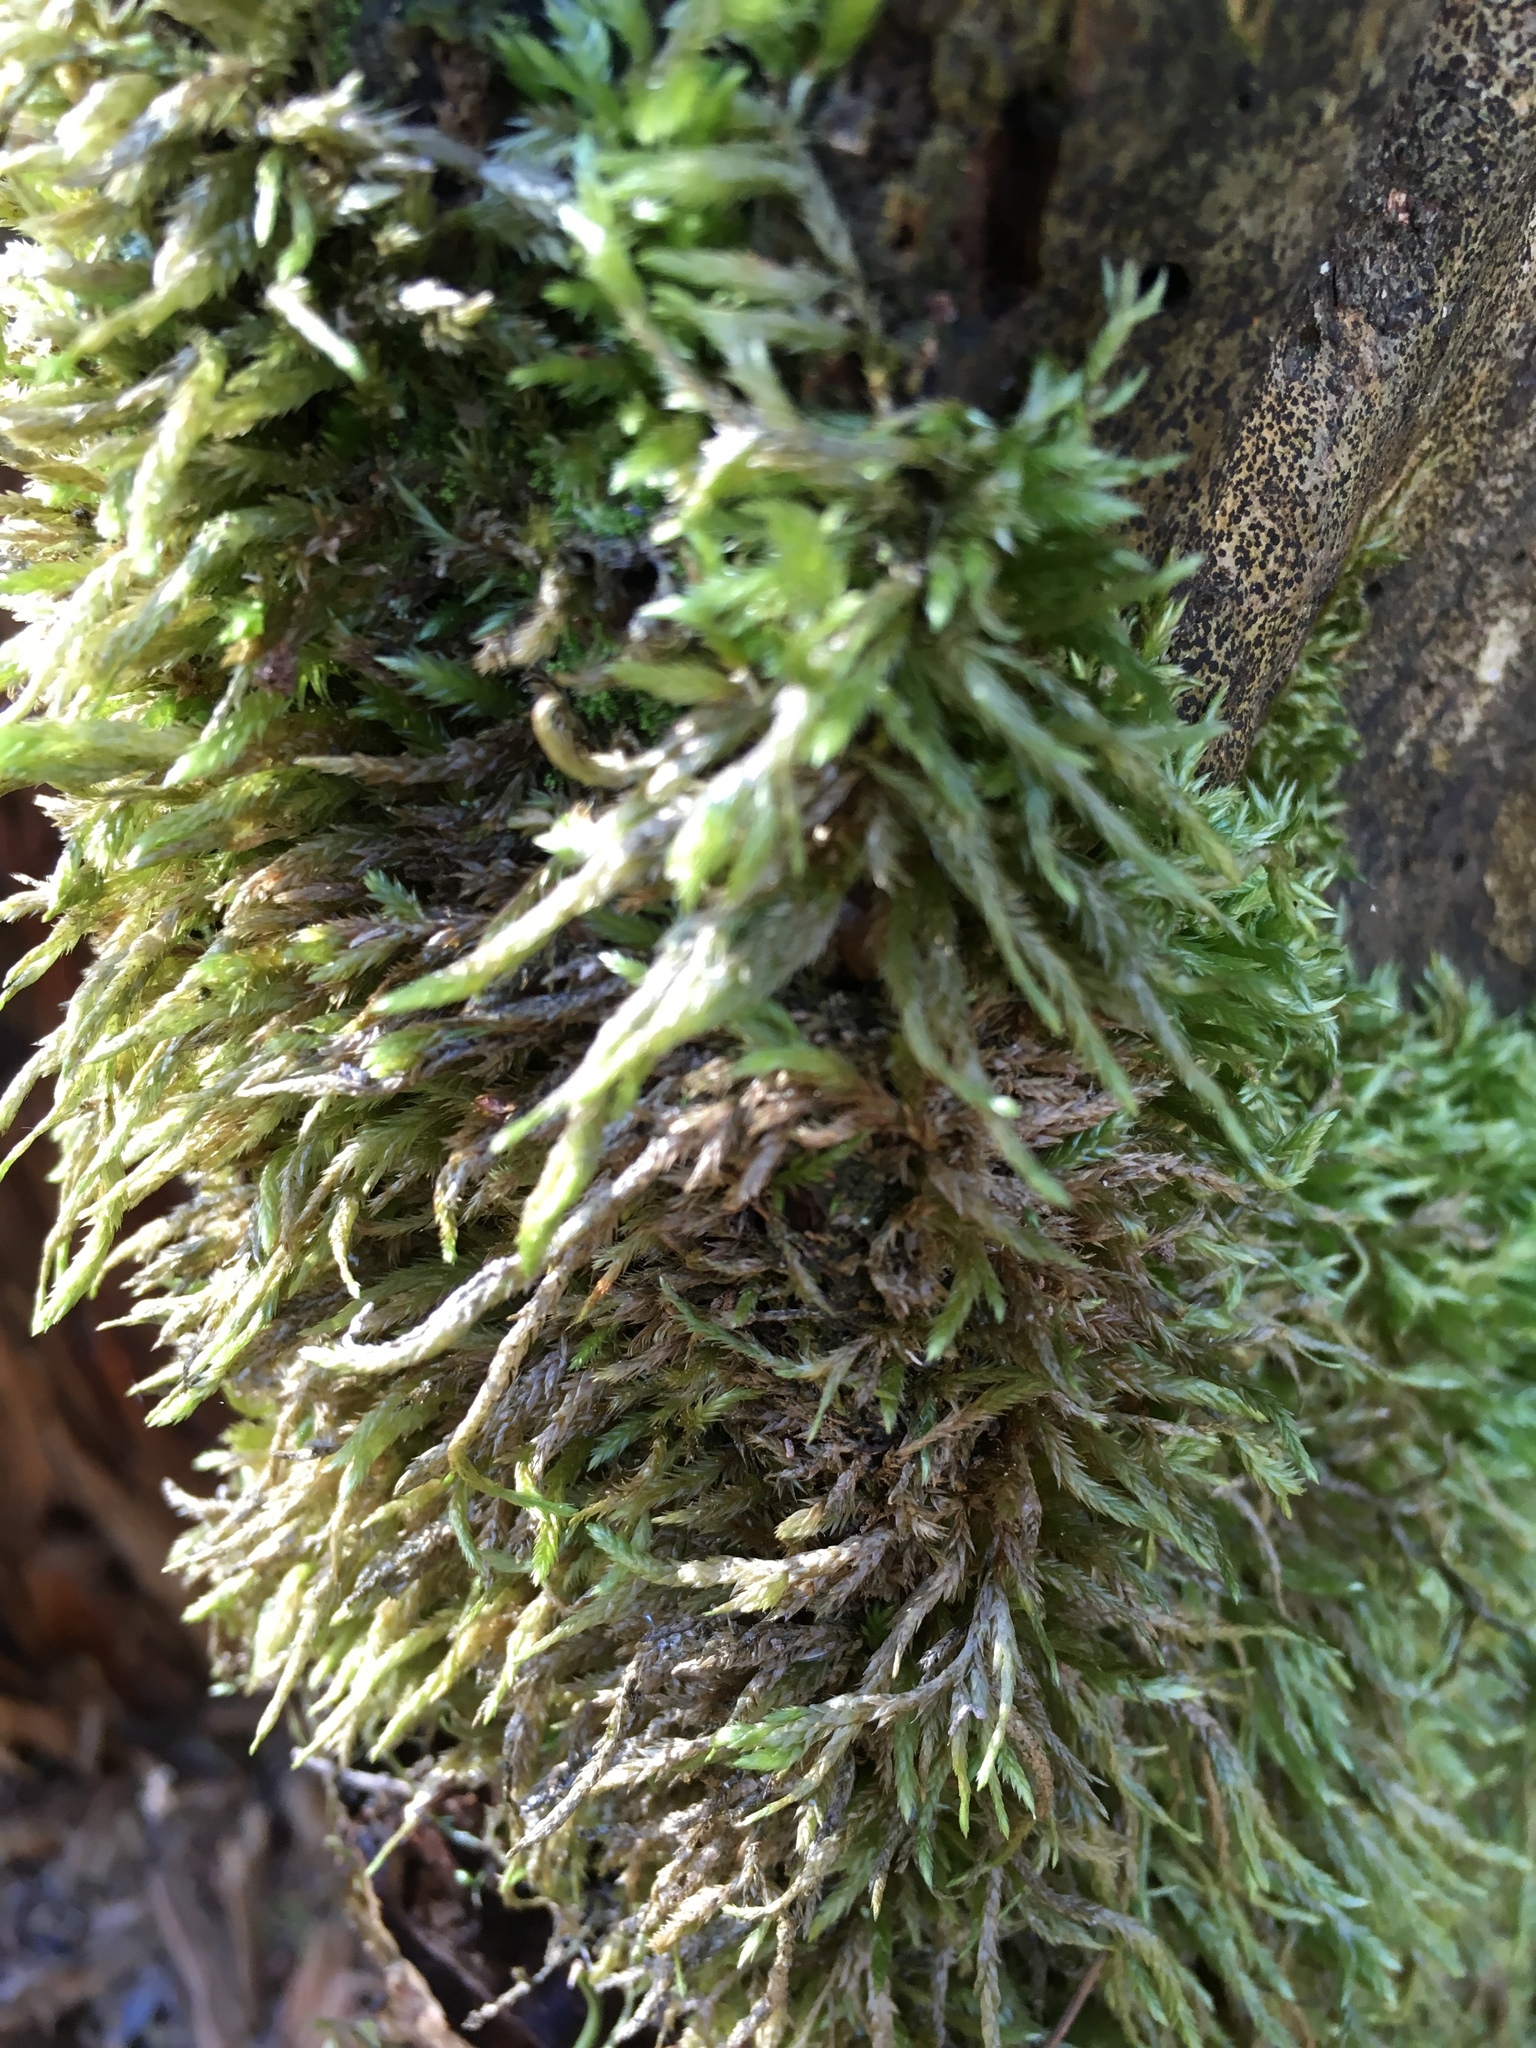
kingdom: Plantae
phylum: Bryophyta
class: Bryopsida
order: Hypnales
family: Lembophyllaceae
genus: Isothecium
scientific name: Isothecium alopecuroides
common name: Larger mouse-tail moss
